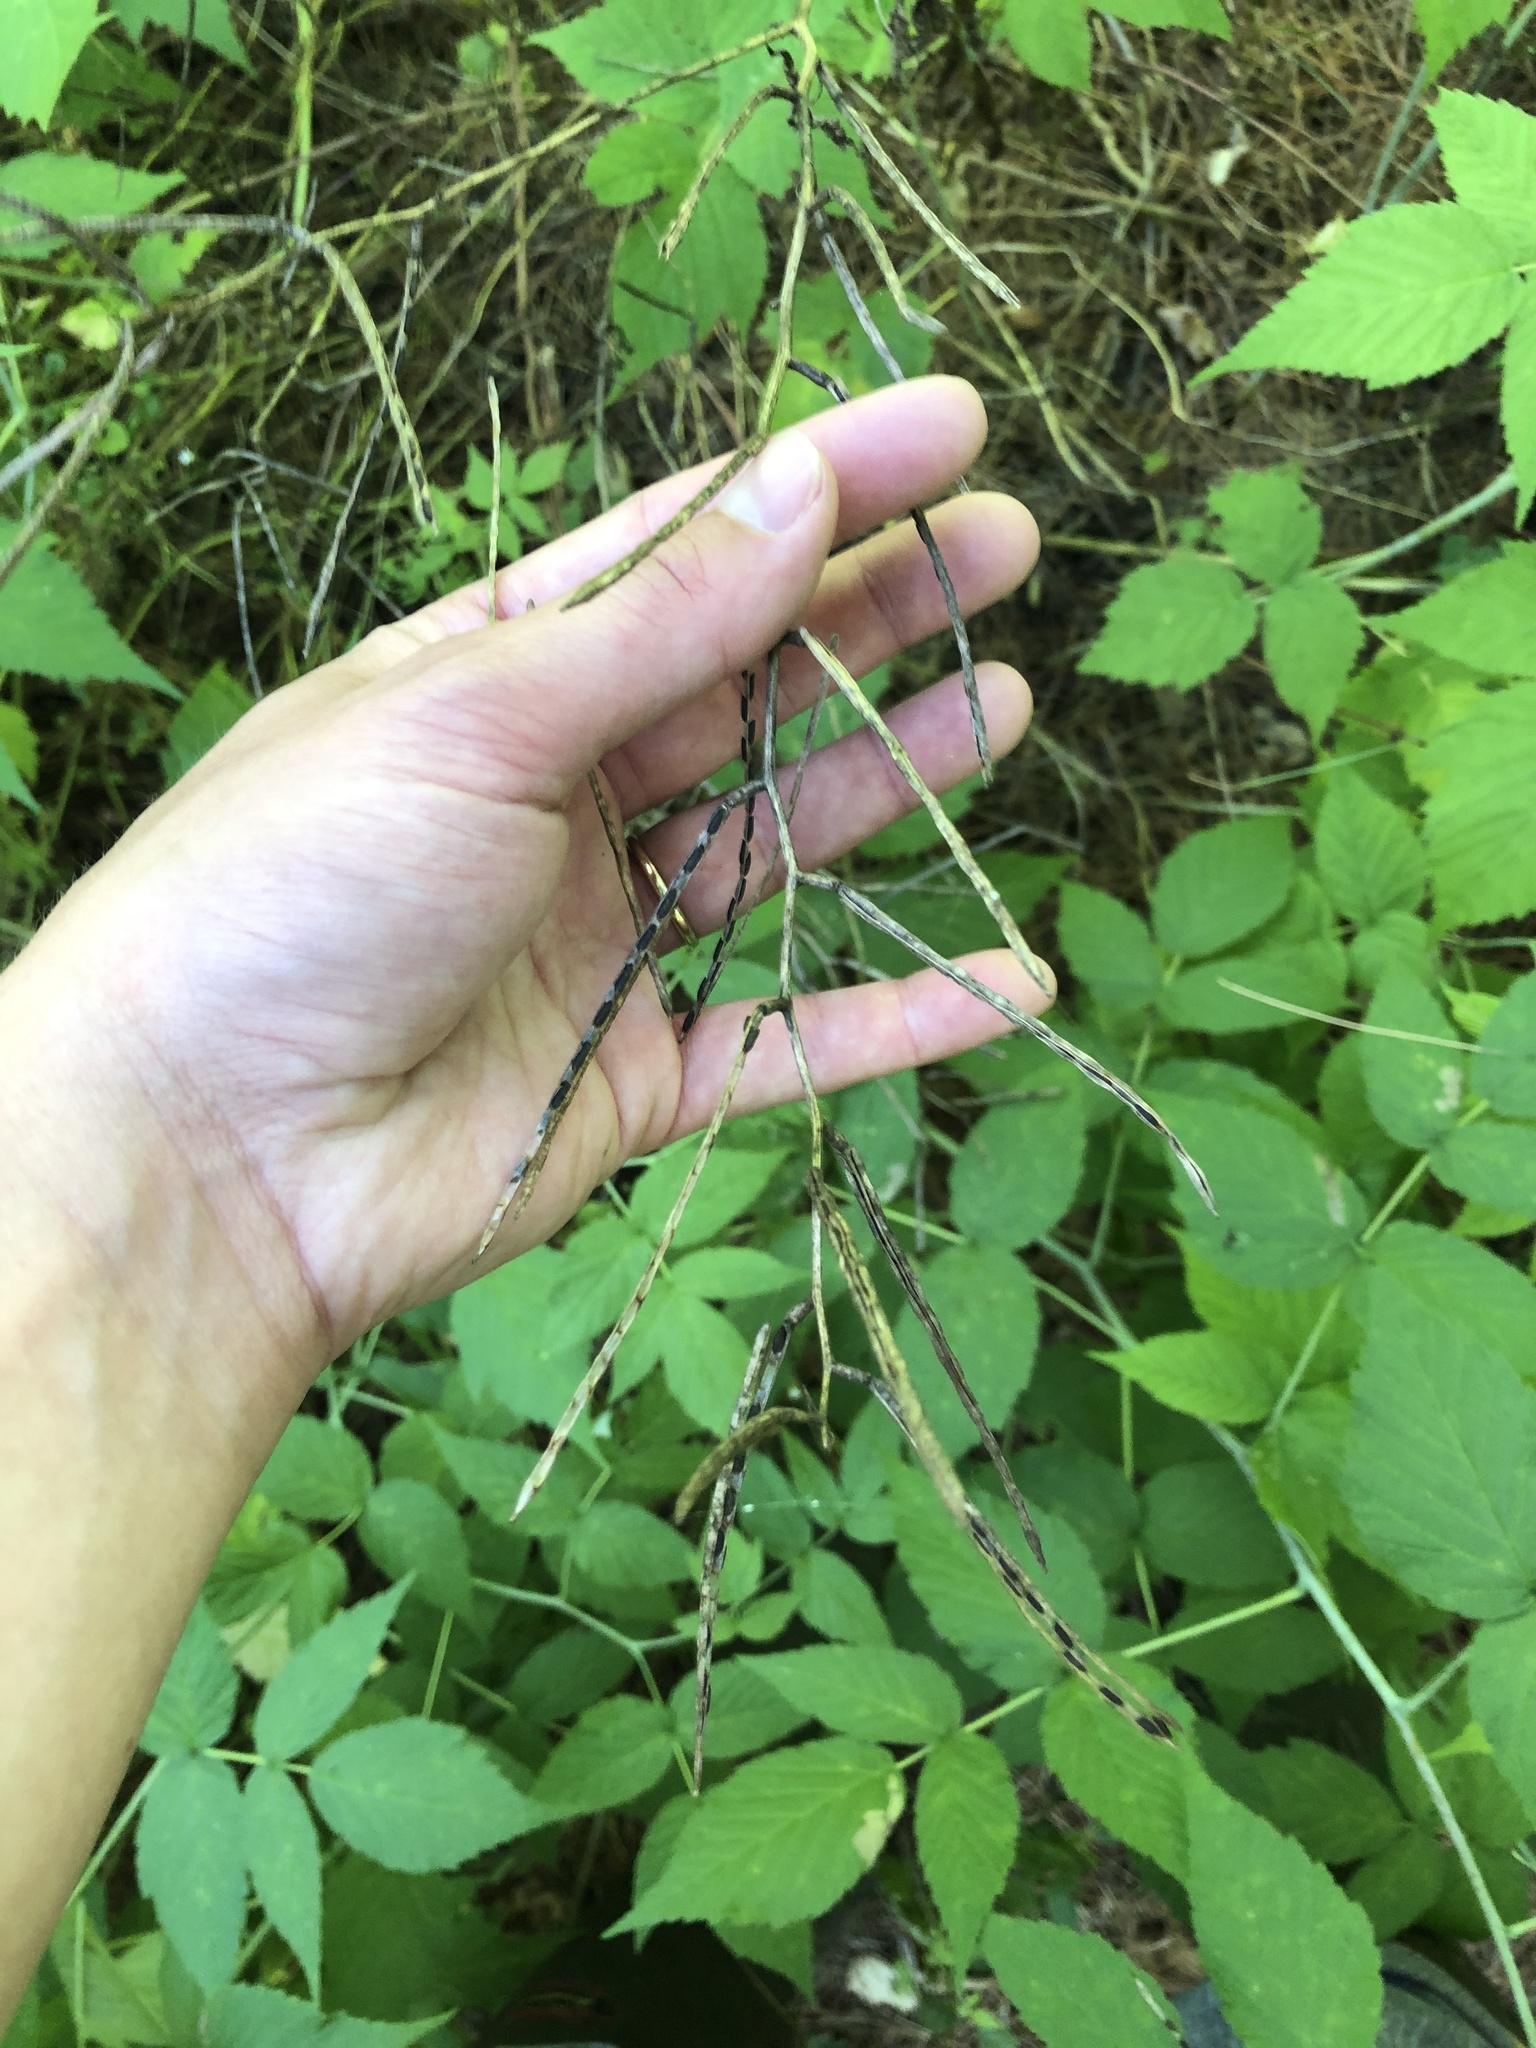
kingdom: Plantae
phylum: Tracheophyta
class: Magnoliopsida
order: Brassicales
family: Brassicaceae
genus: Hesperis
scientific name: Hesperis matronalis
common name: Dame's-violet
